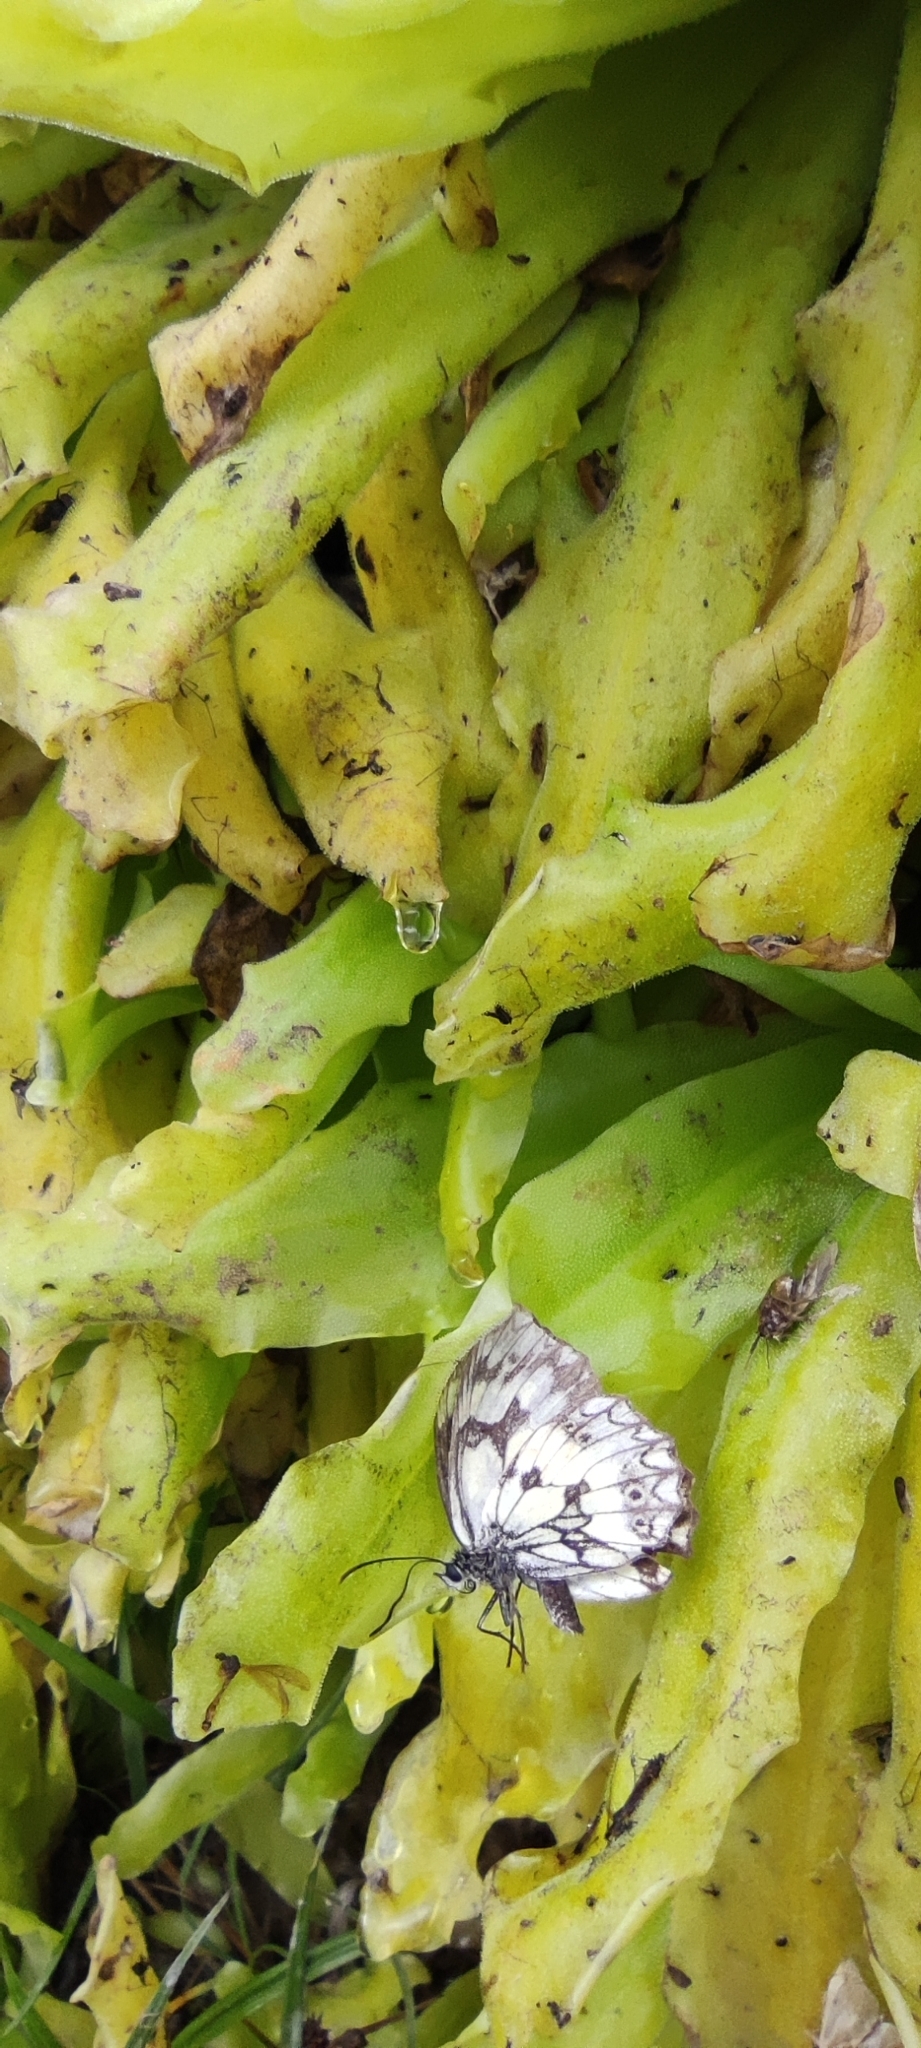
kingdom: Plantae
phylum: Tracheophyta
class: Magnoliopsida
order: Lamiales
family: Lentibulariaceae
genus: Pinguicula
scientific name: Pinguicula longifolia
